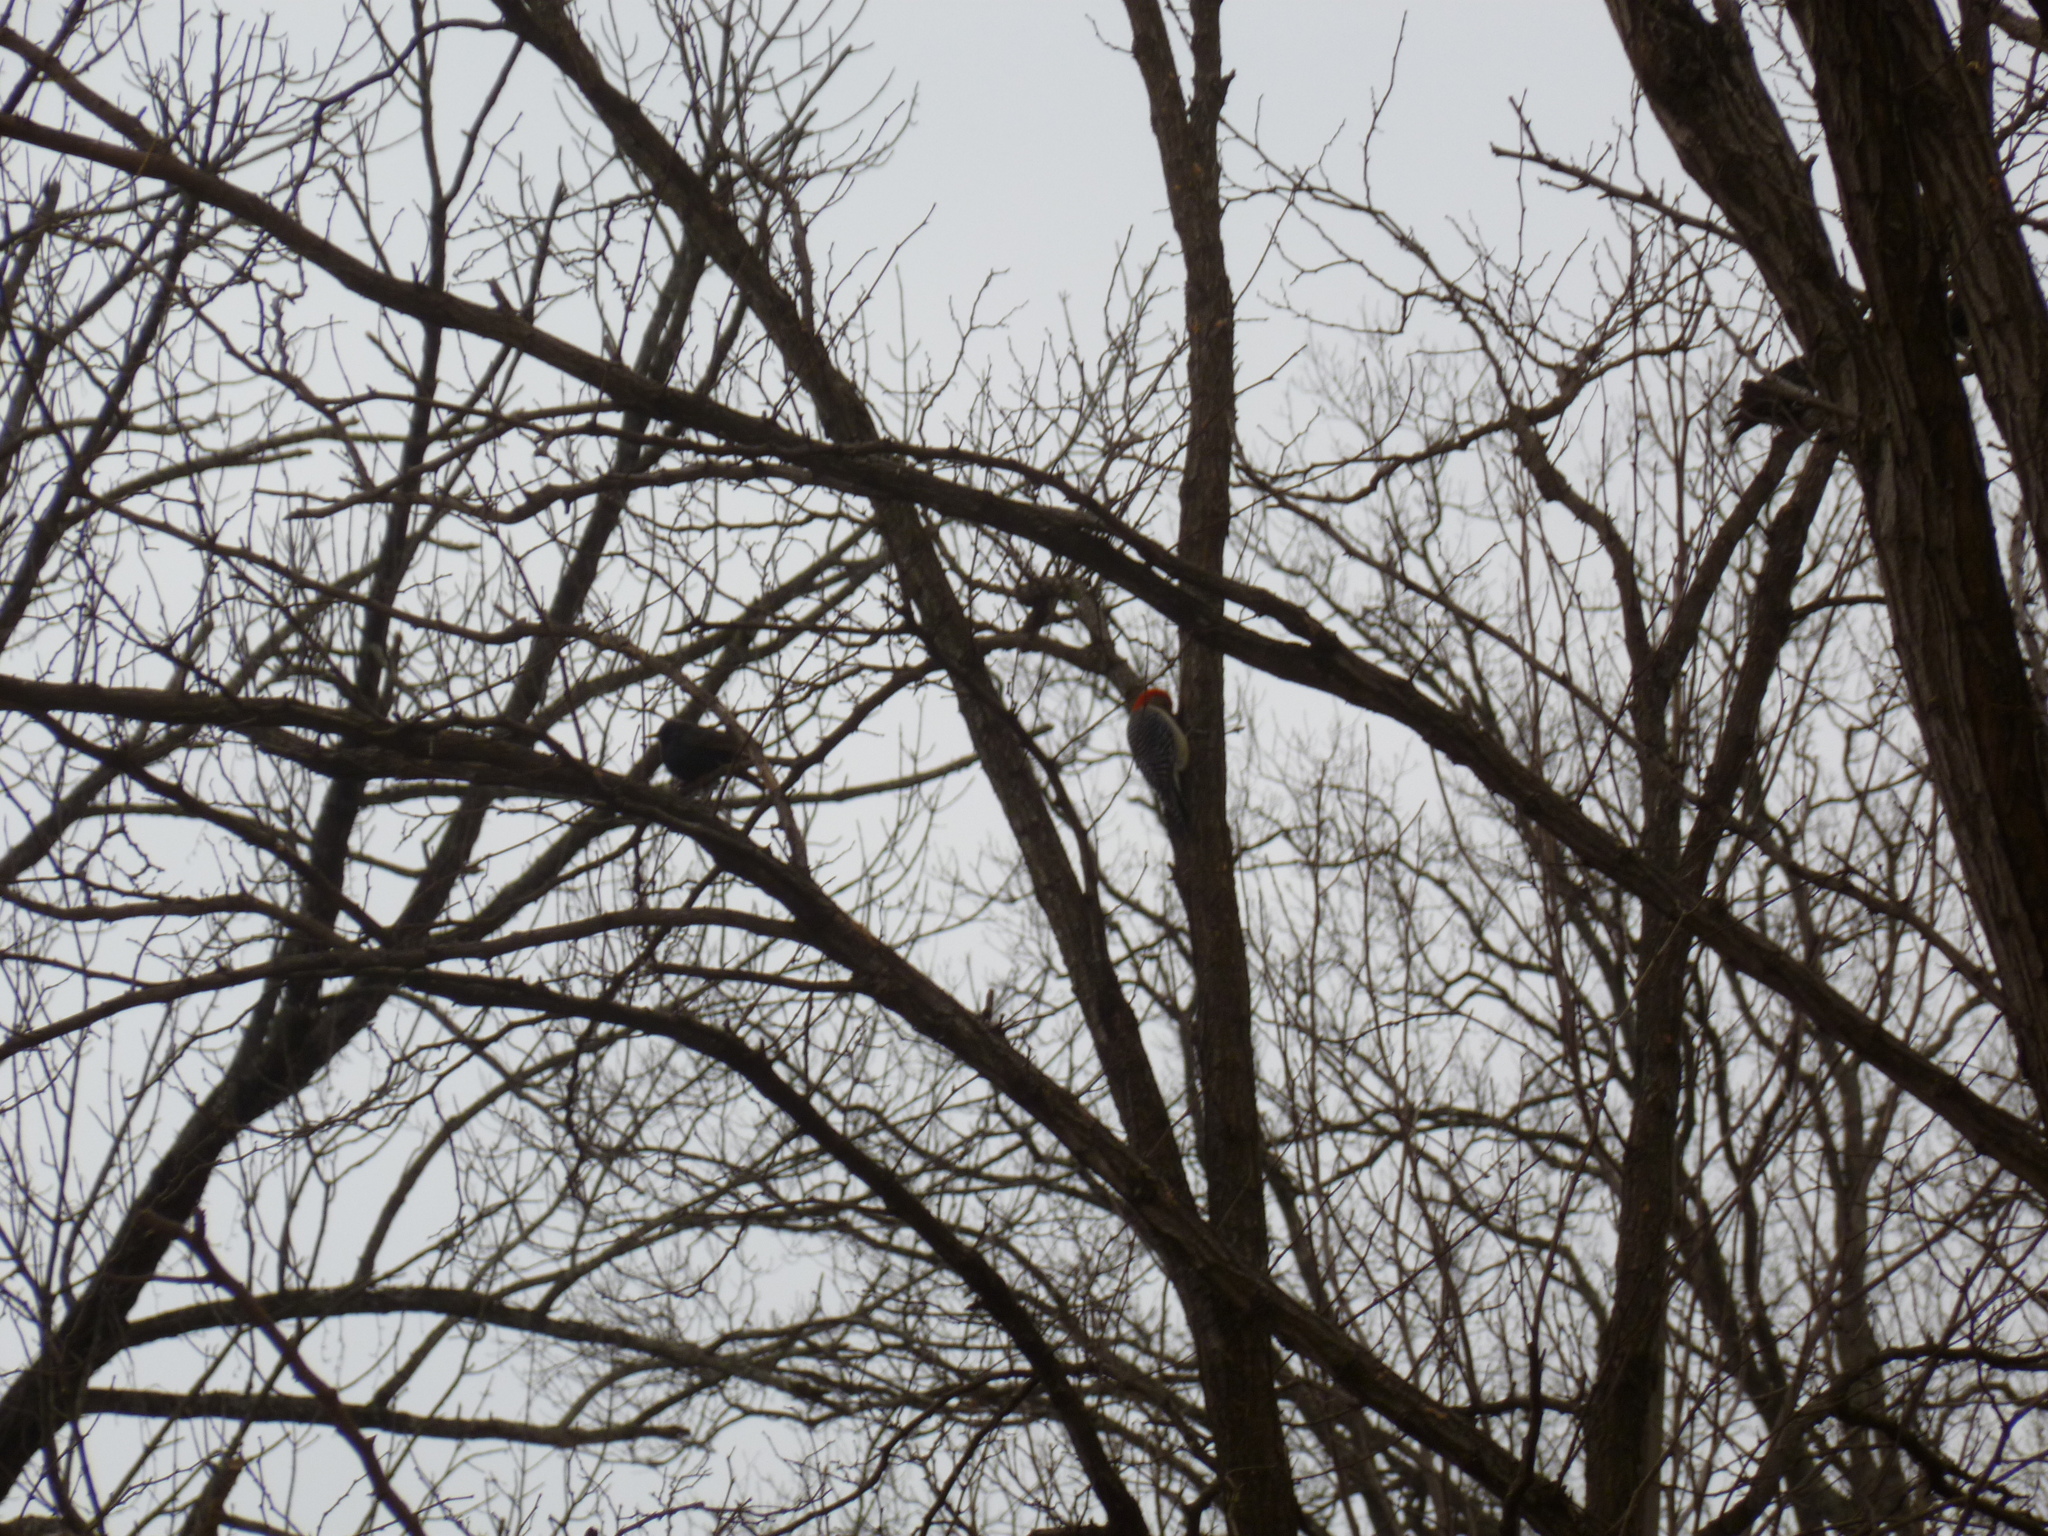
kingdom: Animalia
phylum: Chordata
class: Aves
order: Piciformes
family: Picidae
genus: Melanerpes
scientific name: Melanerpes carolinus
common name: Red-bellied woodpecker
